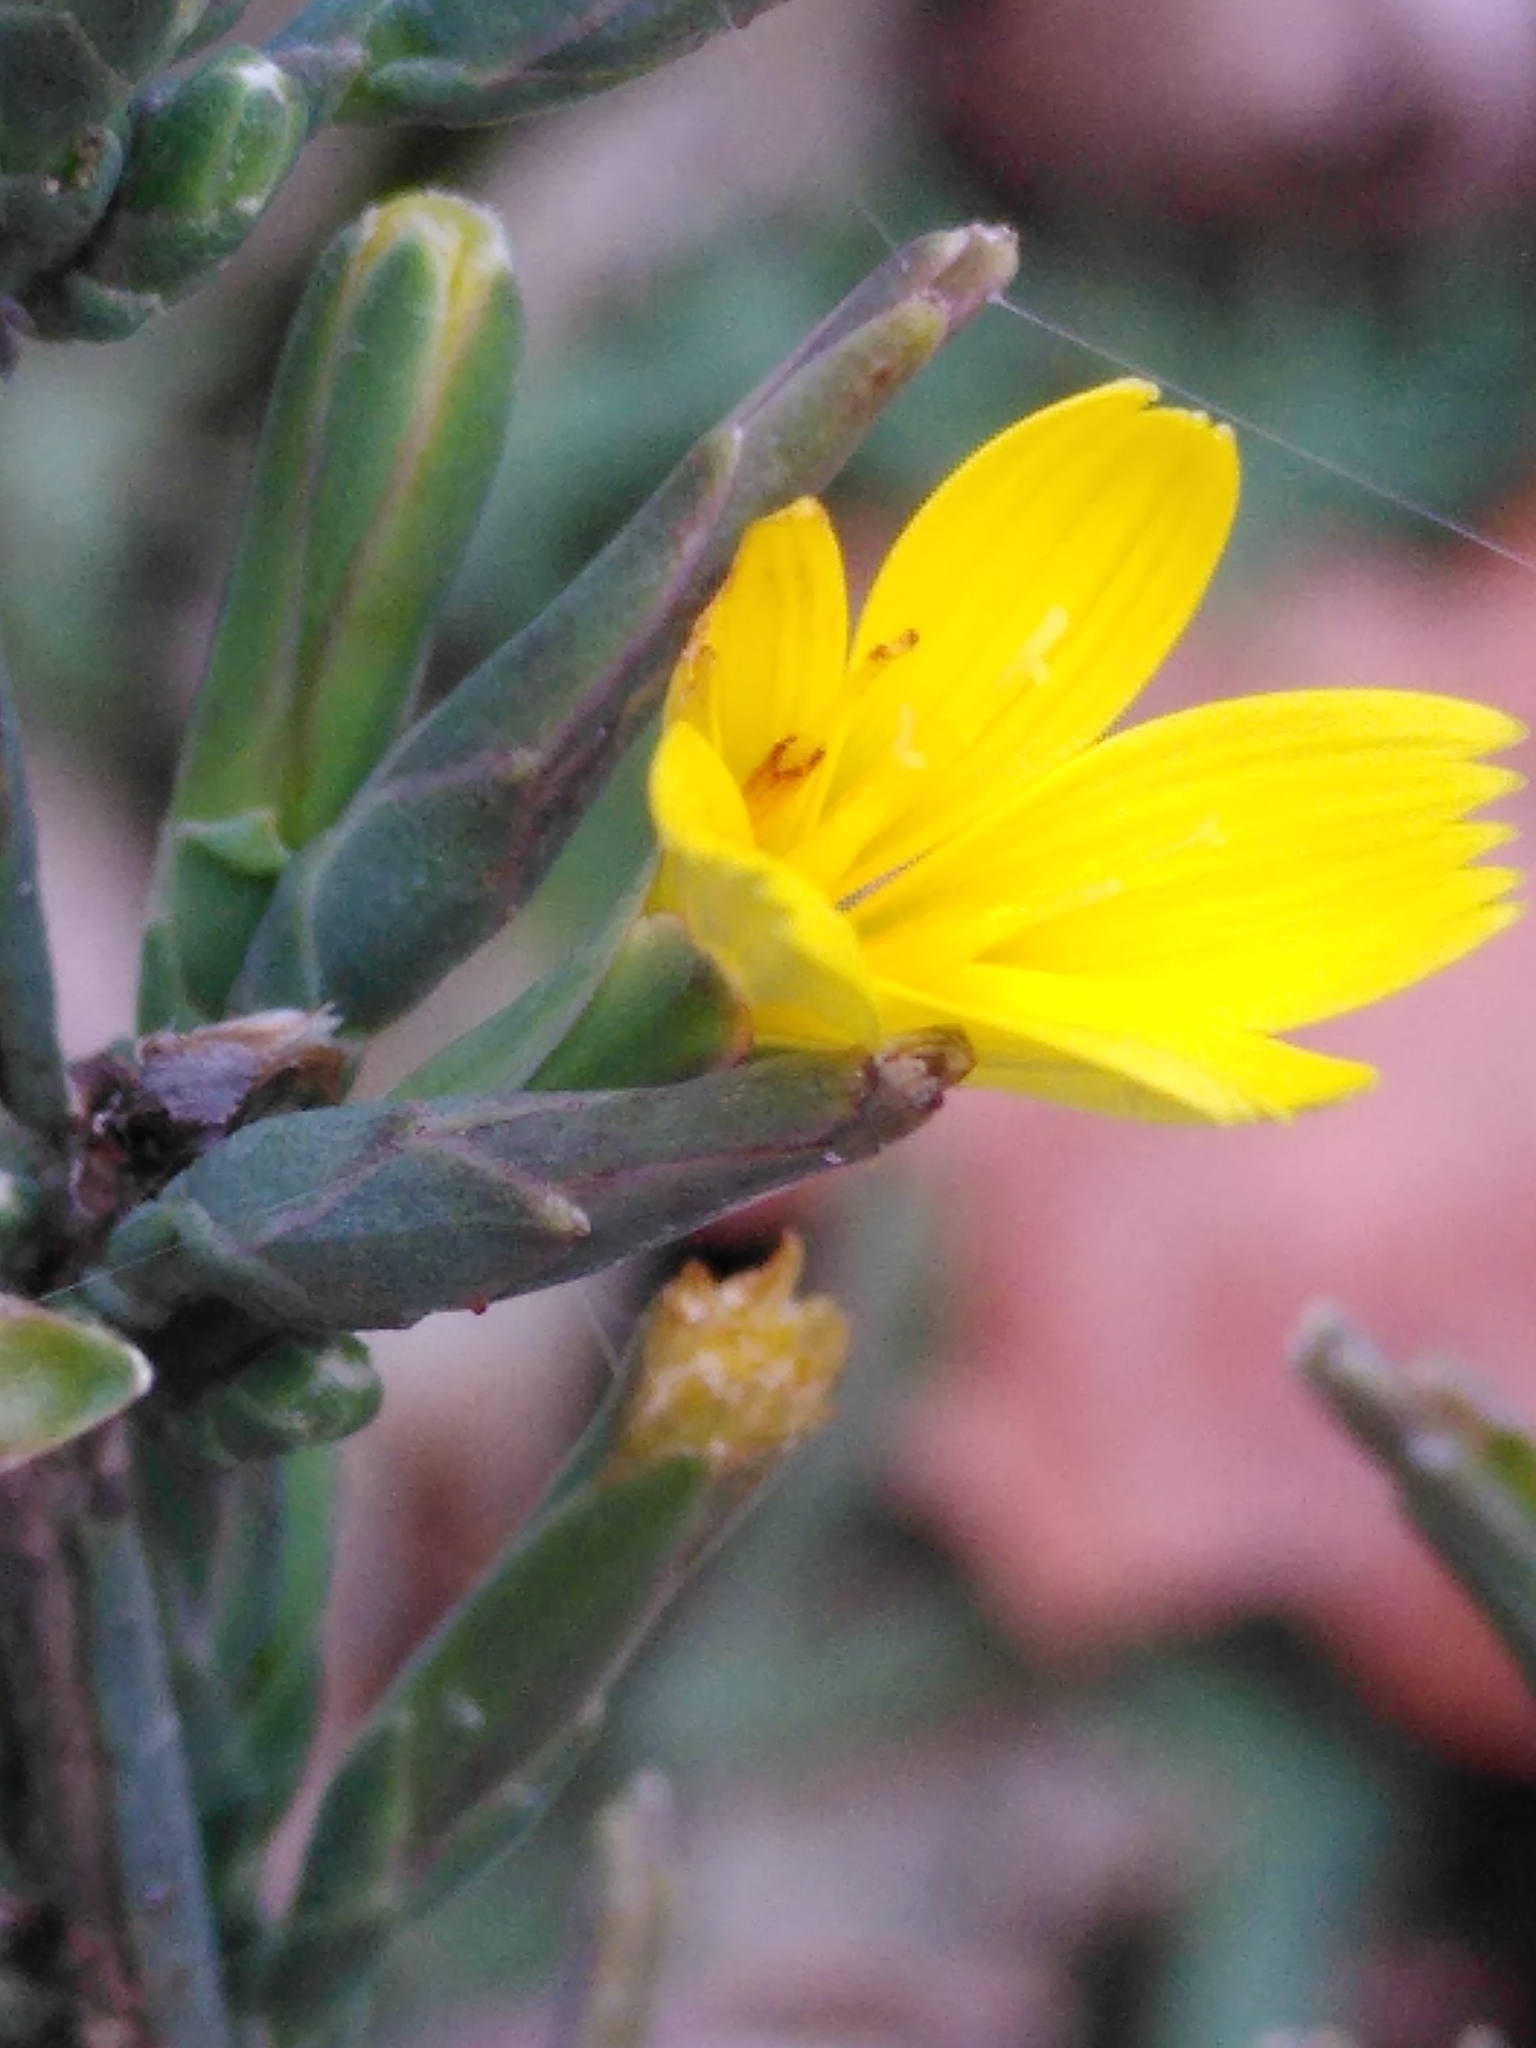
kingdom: Plantae
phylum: Tracheophyta
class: Magnoliopsida
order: Asterales
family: Asteraceae
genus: Lactuca
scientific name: Lactuca viminea
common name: Pliant lettuce
